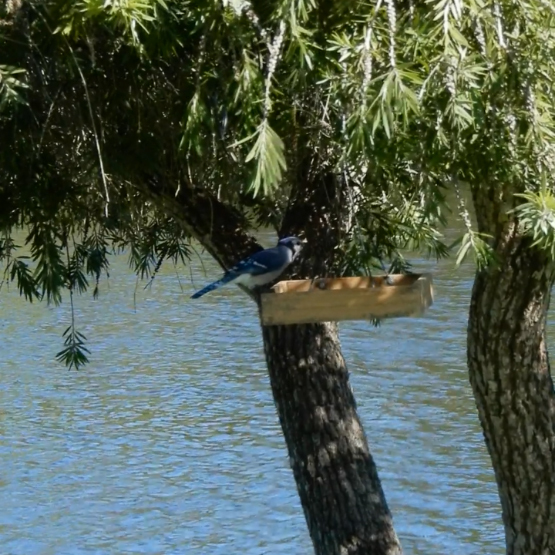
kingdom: Animalia
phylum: Chordata
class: Aves
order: Passeriformes
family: Corvidae
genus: Cyanocitta
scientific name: Cyanocitta cristata
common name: Blue jay
